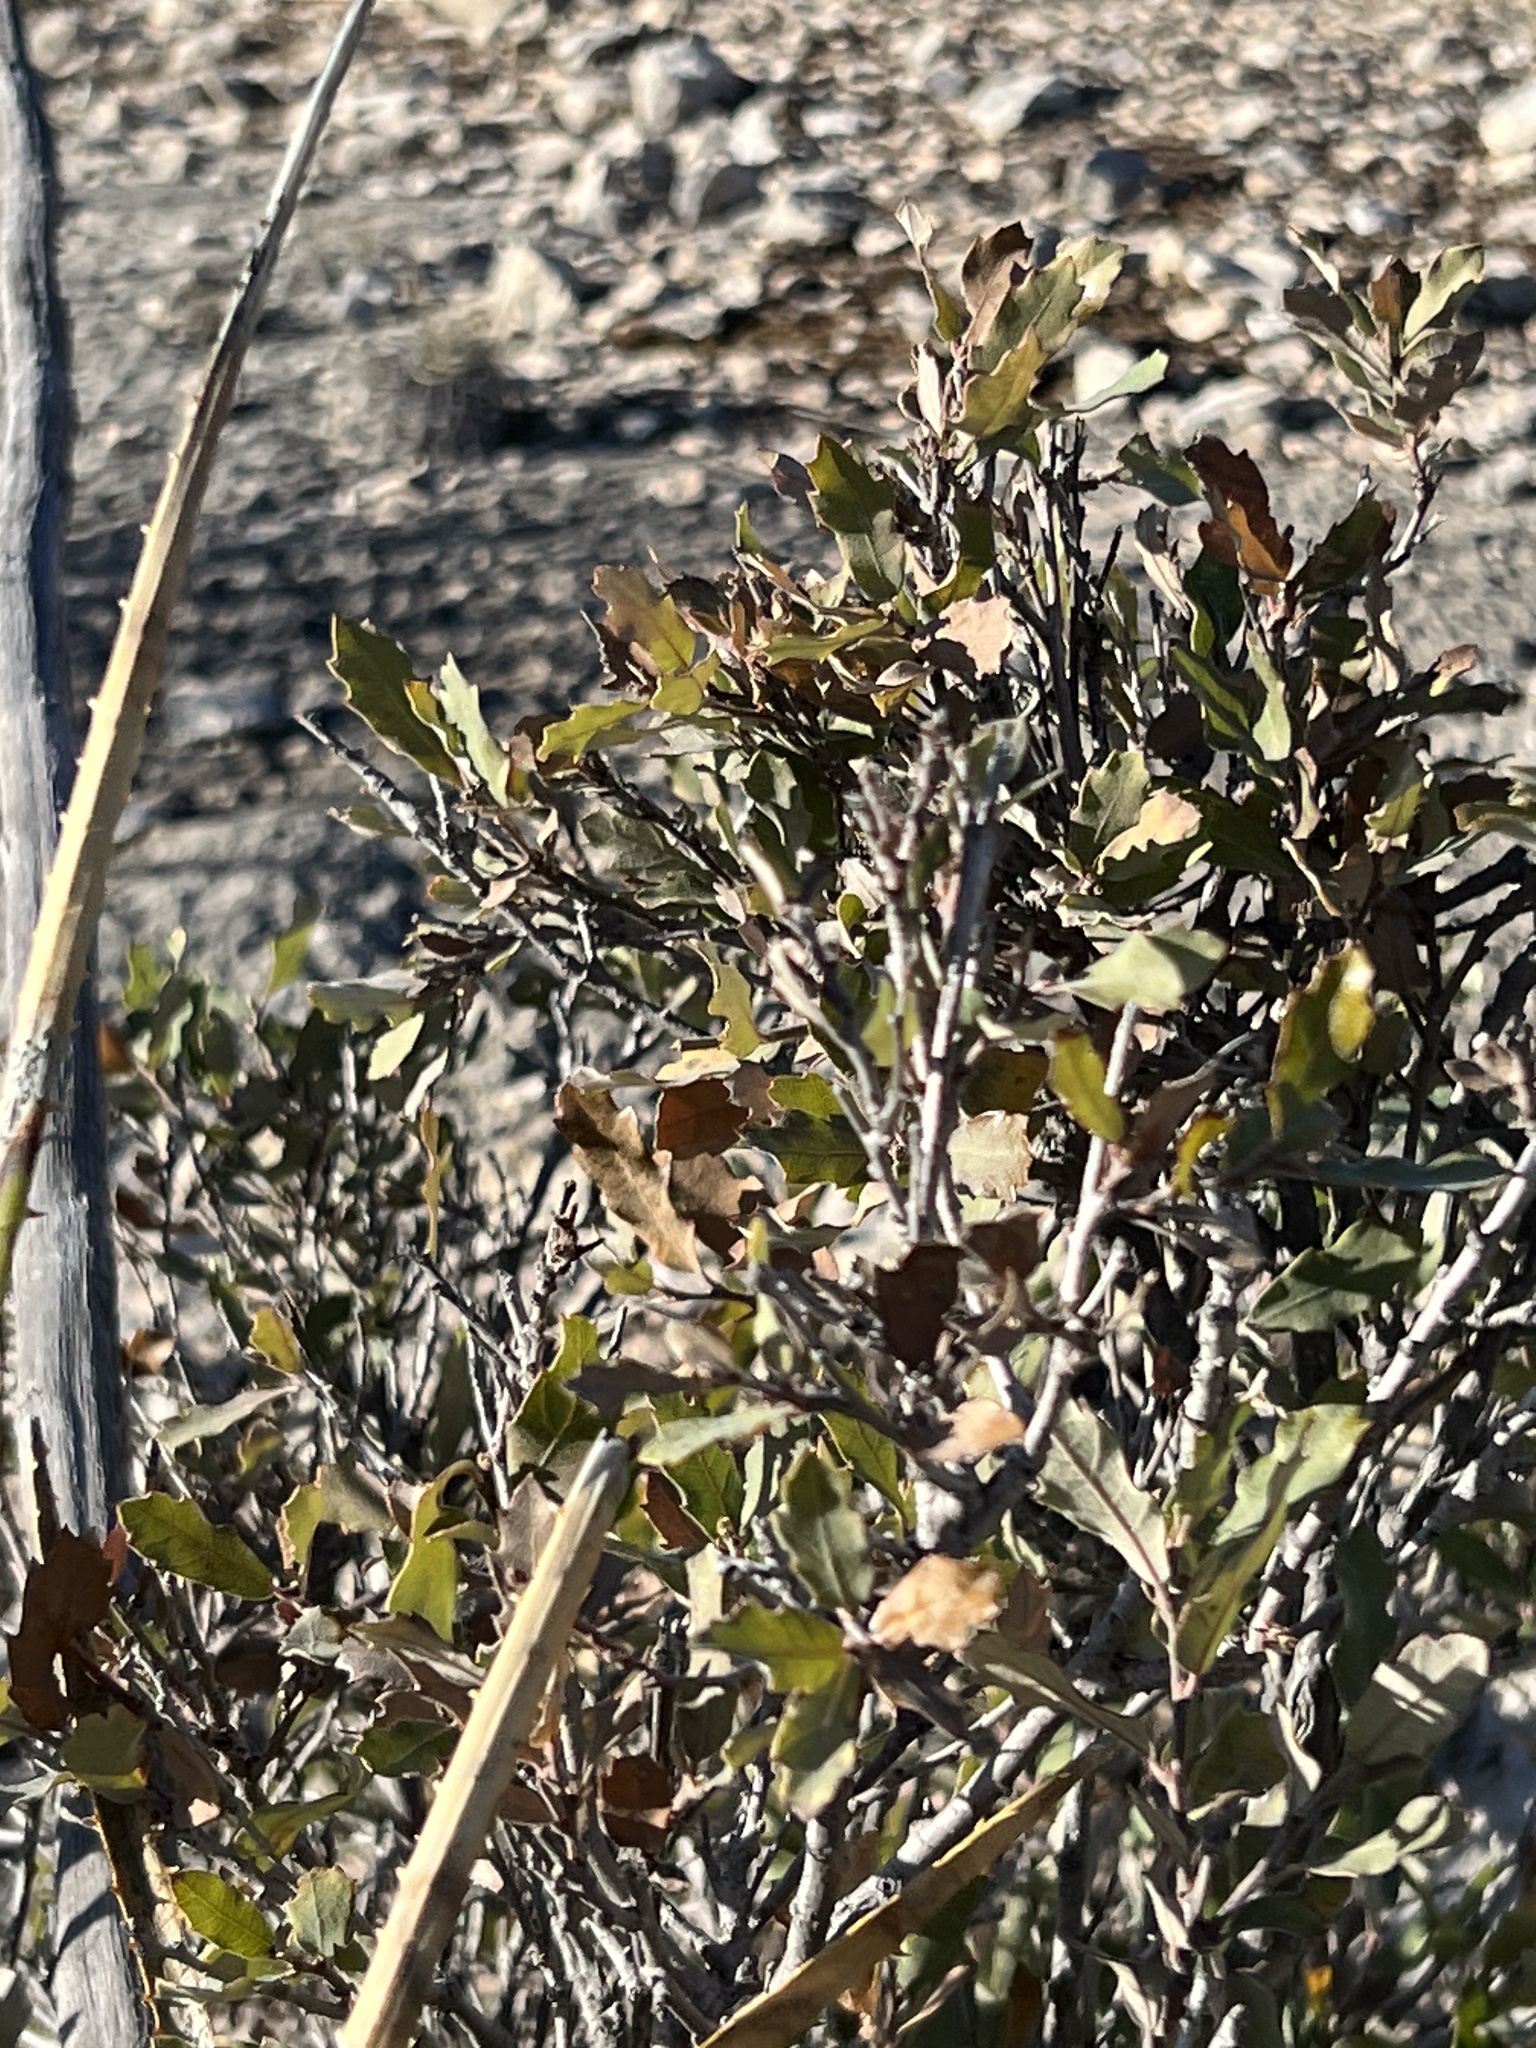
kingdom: Plantae
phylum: Tracheophyta
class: Magnoliopsida
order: Fagales
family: Fagaceae
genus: Quercus
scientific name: Quercus vaseyana
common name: Sandpaper oak
